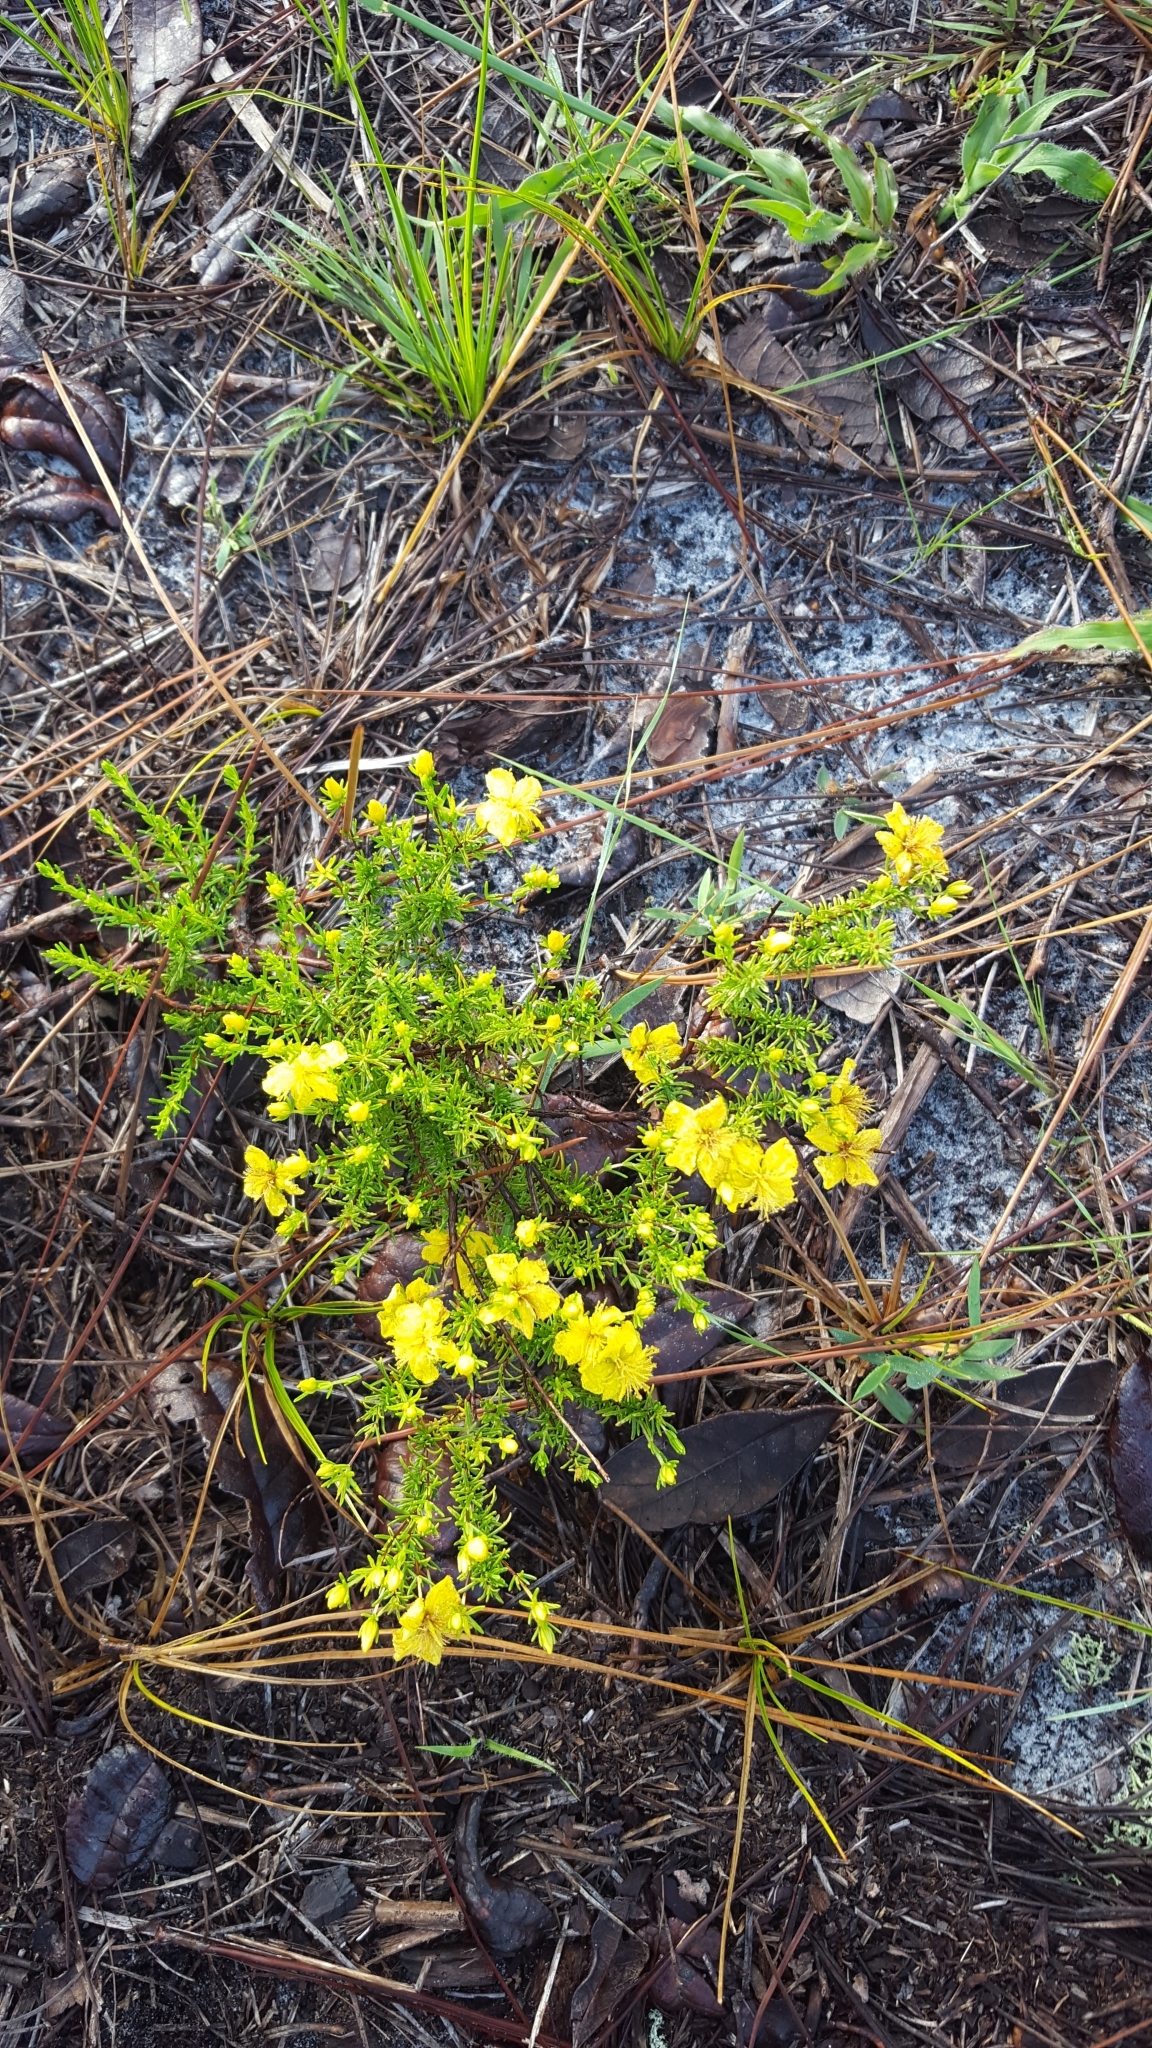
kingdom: Plantae
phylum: Tracheophyta
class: Magnoliopsida
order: Malpighiales
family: Hypericaceae
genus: Hypericum
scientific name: Hypericum tenuifolium
